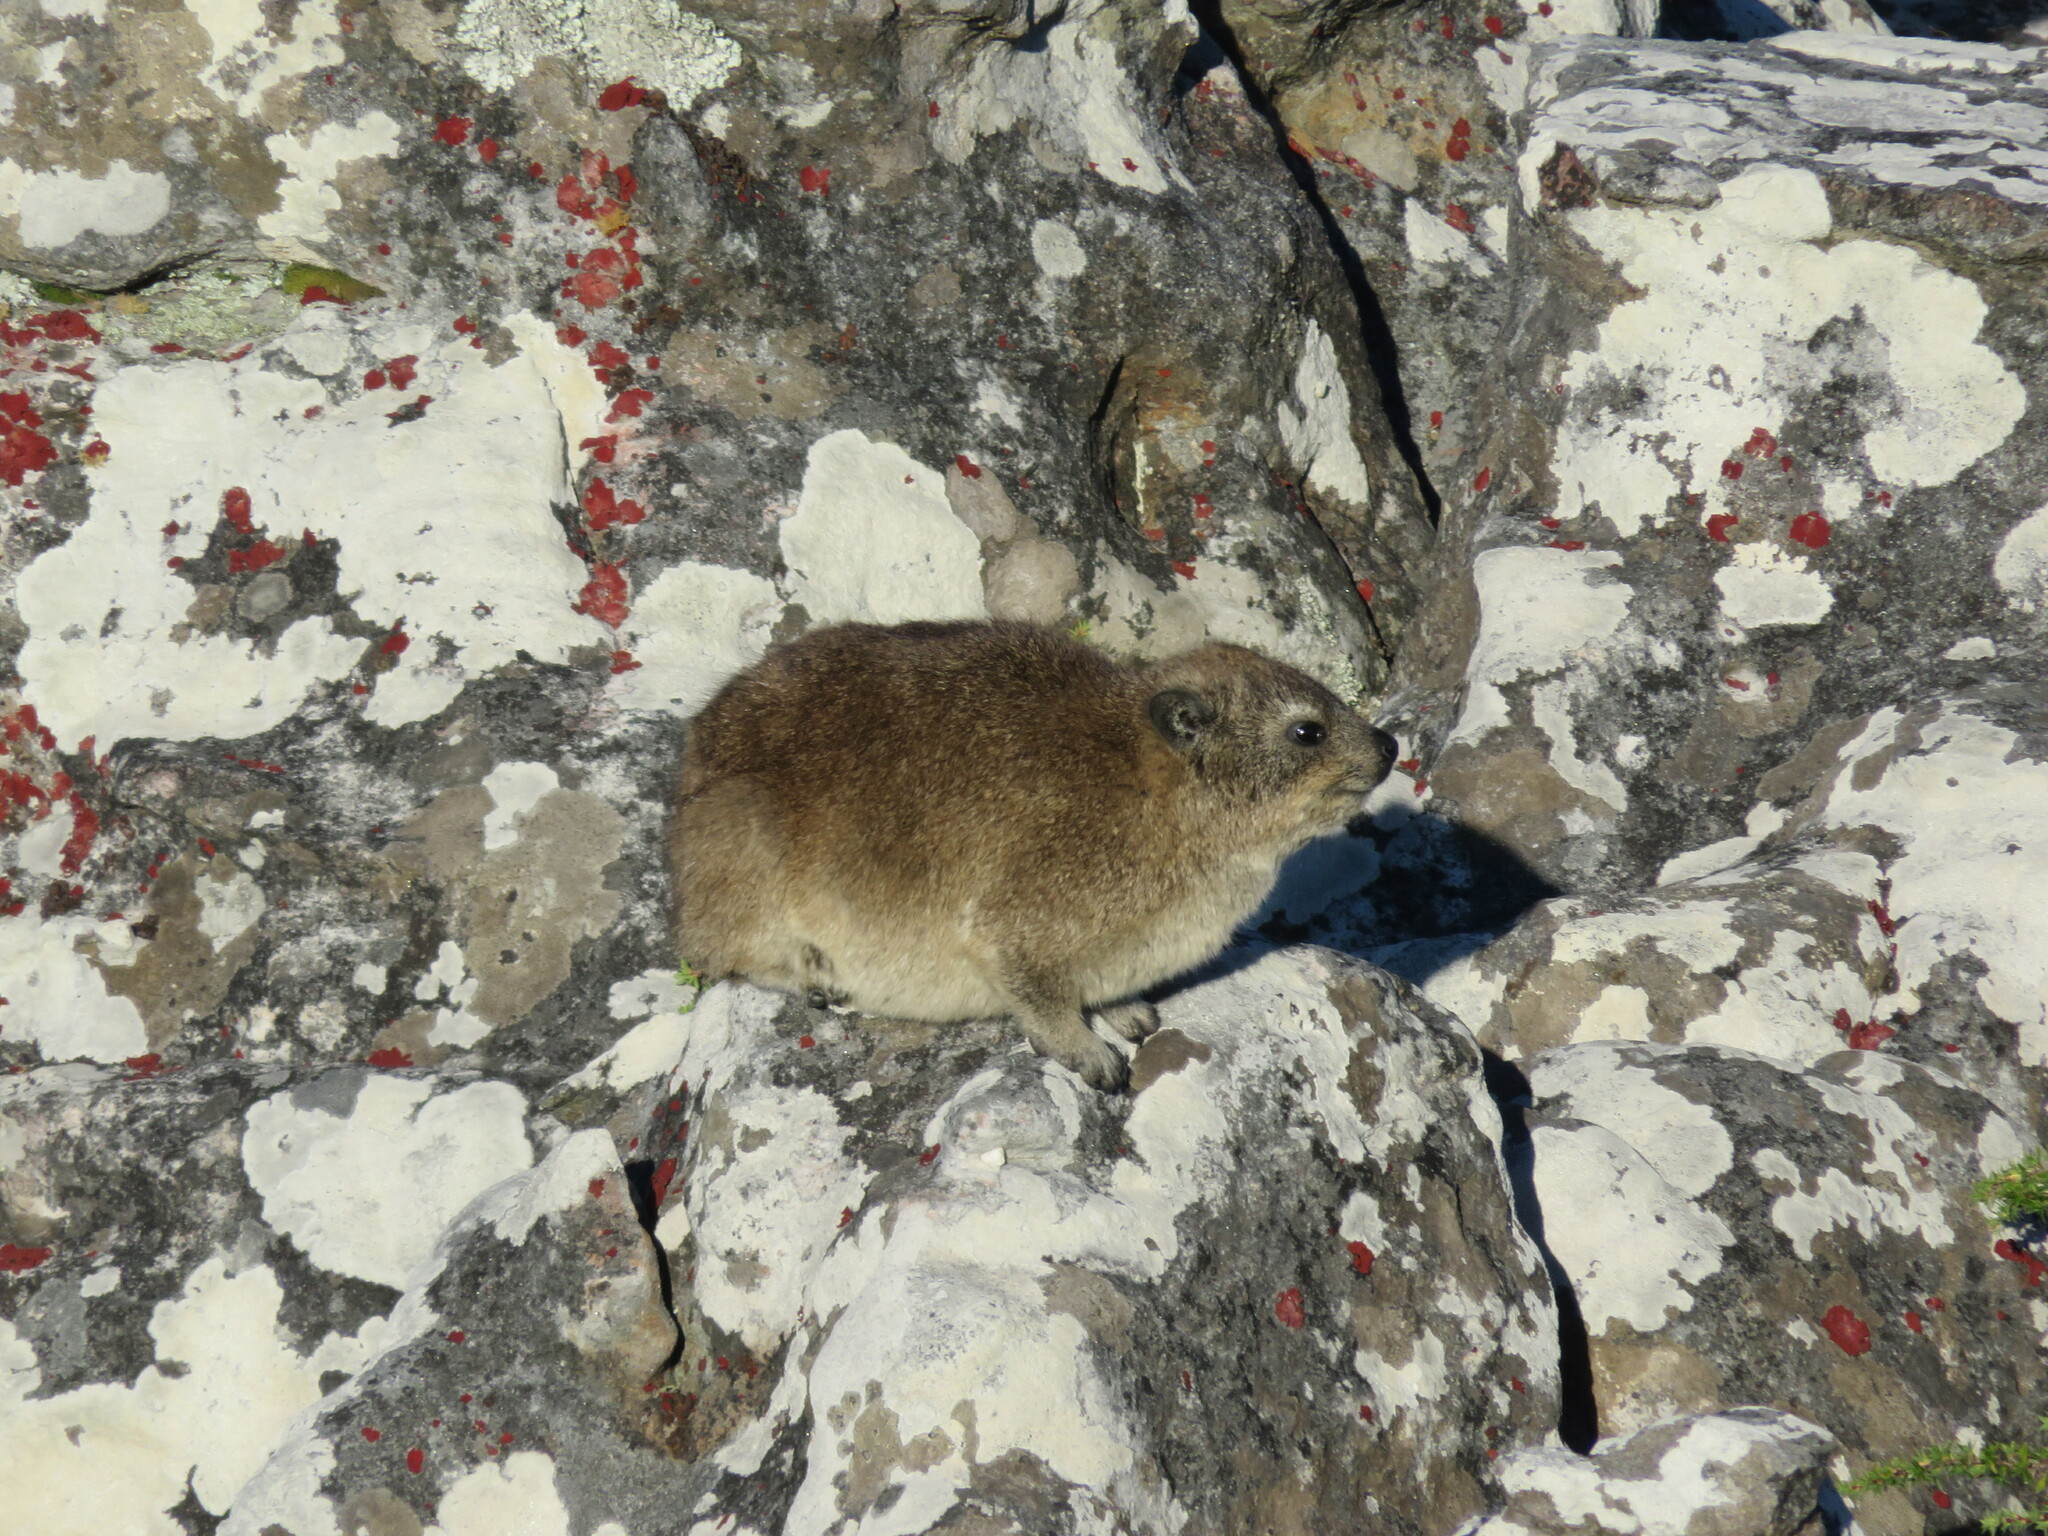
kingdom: Animalia
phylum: Chordata
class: Mammalia
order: Hyracoidea
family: Procaviidae
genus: Procavia
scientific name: Procavia capensis
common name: Rock hyrax
